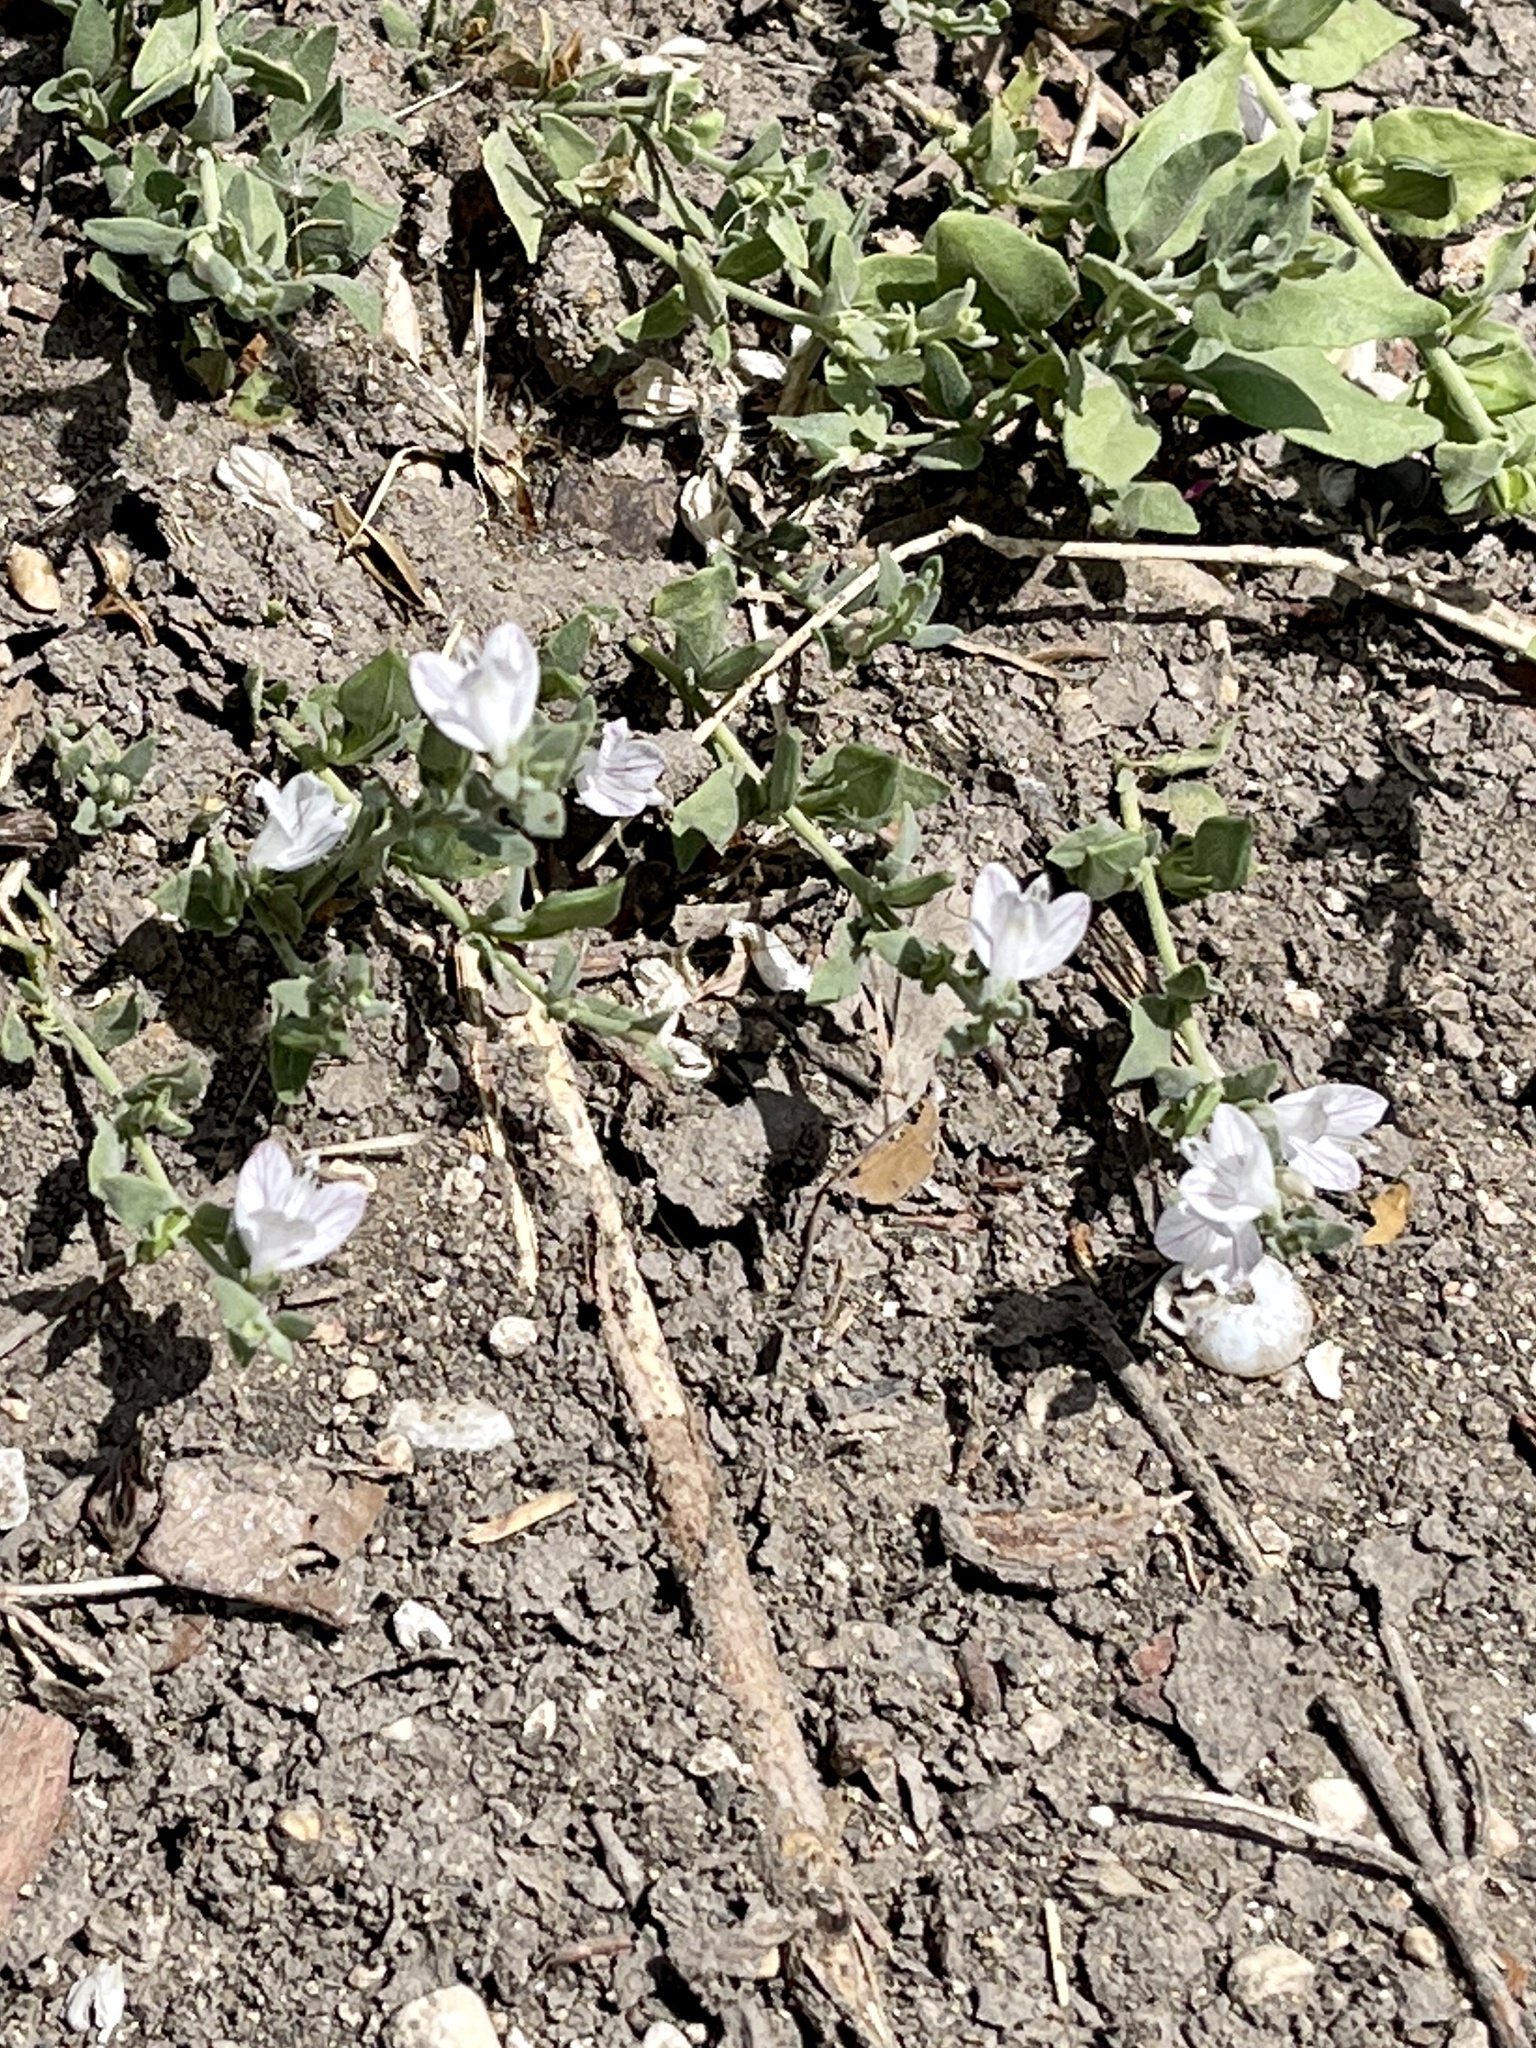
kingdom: Plantae
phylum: Tracheophyta
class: Magnoliopsida
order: Lamiales
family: Acanthaceae
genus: Carlowrightia
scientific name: Carlowrightia texana
